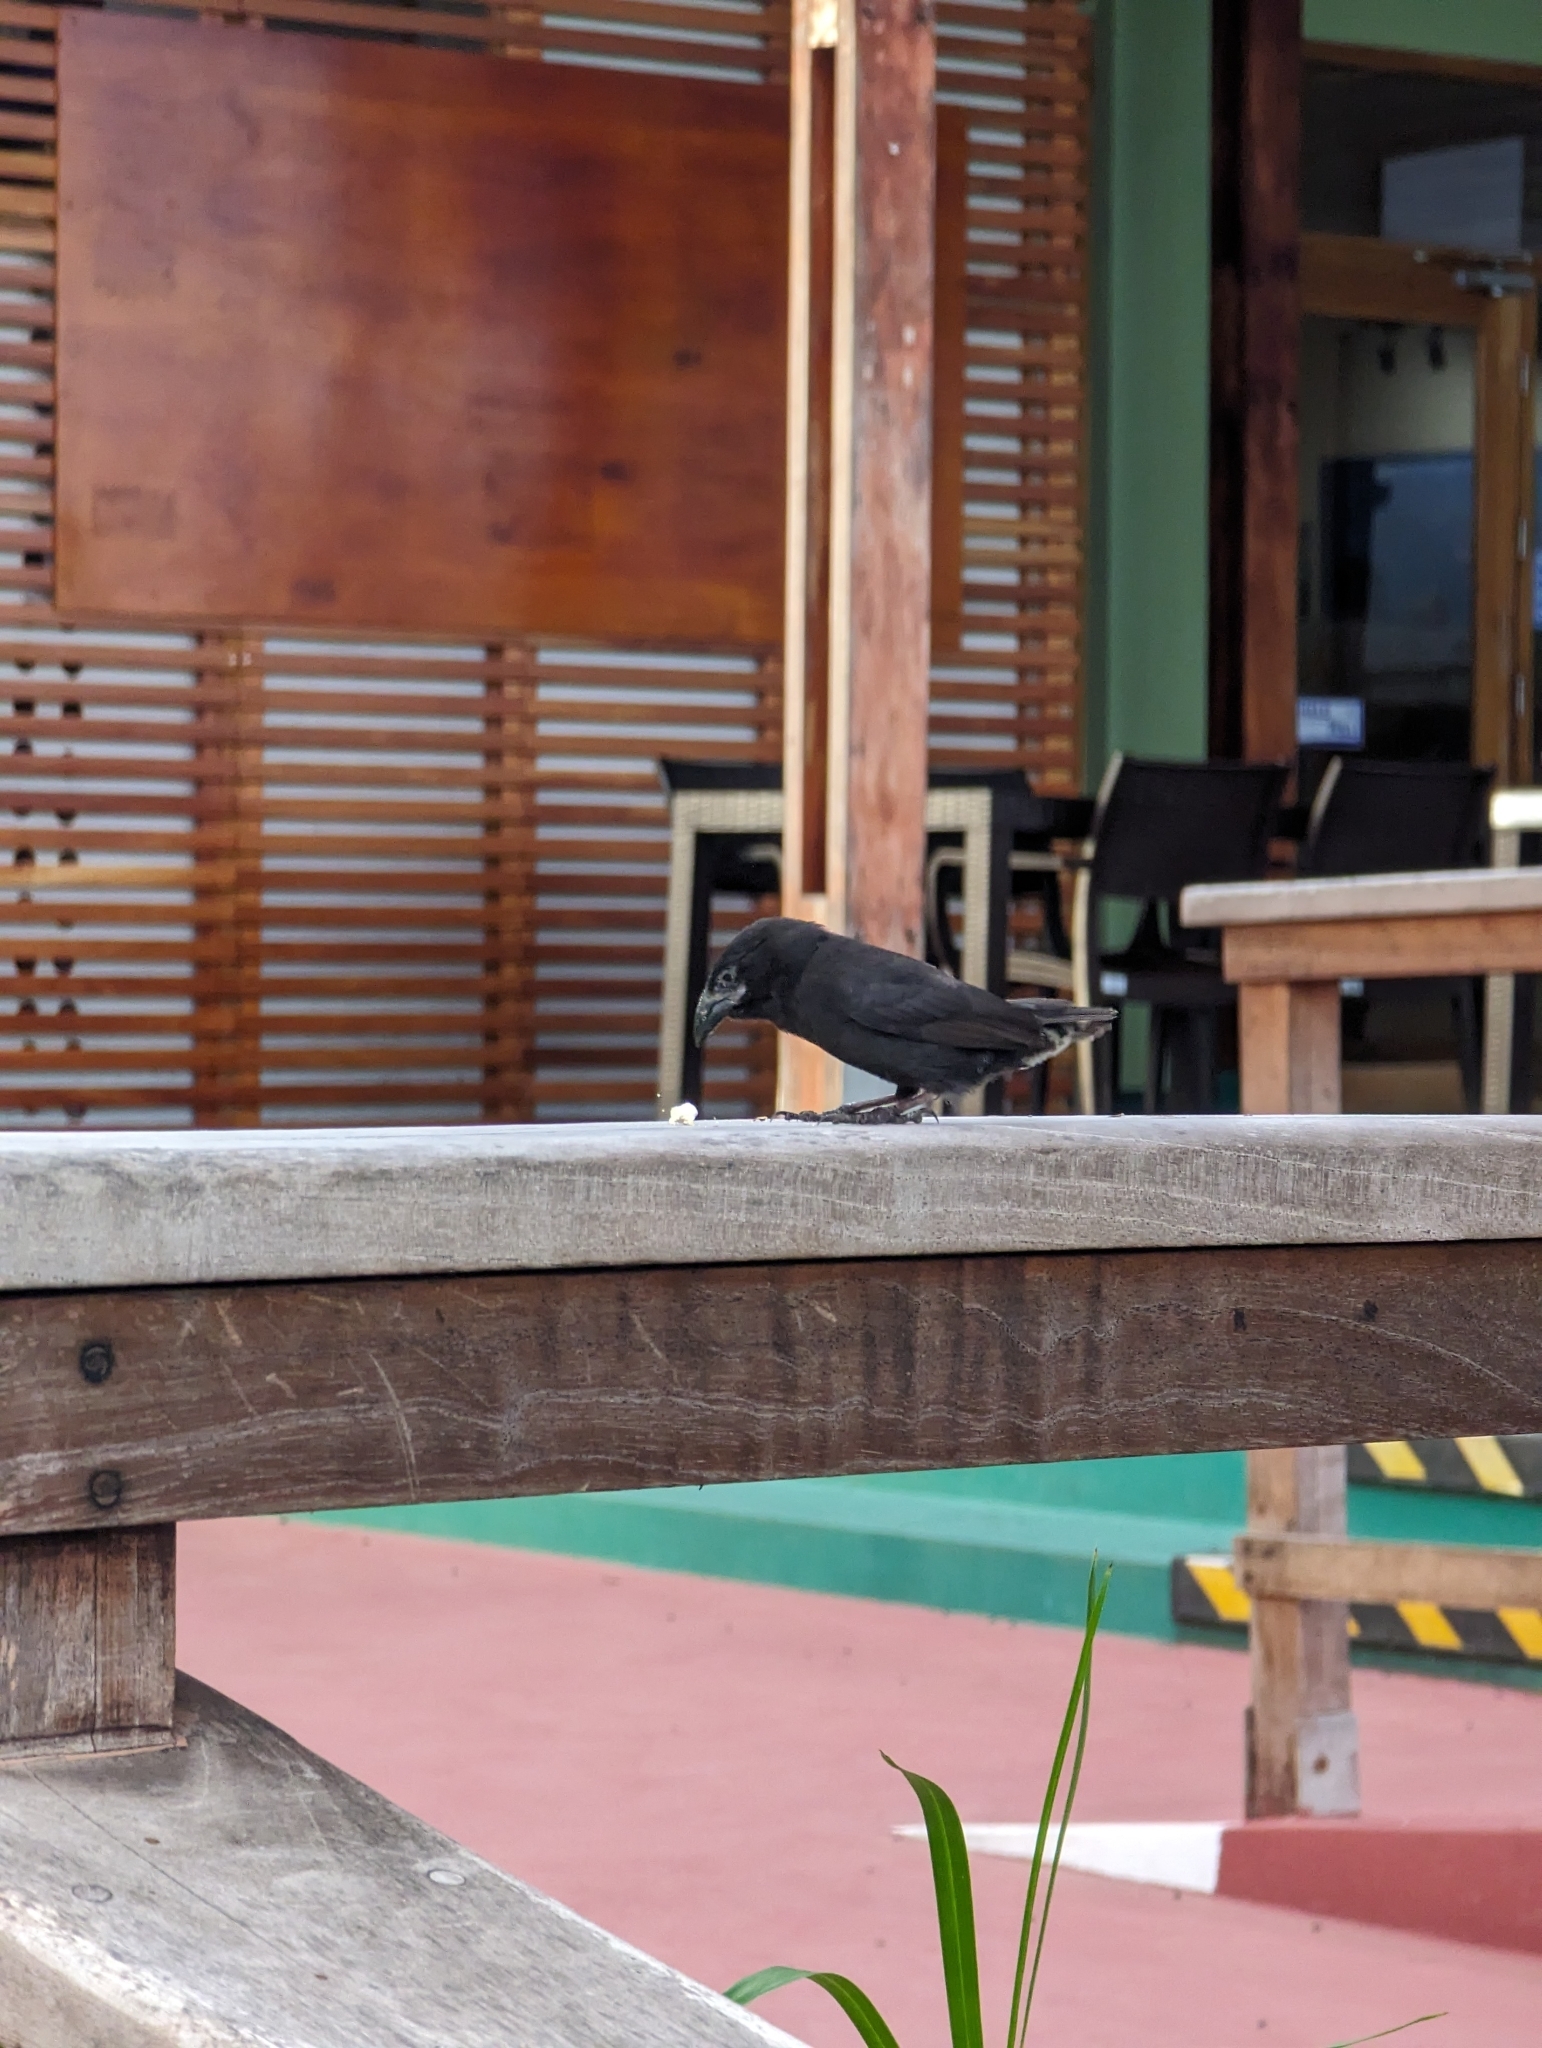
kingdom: Animalia
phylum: Chordata
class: Aves
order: Passeriformes
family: Thraupidae
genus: Geospiza
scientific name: Geospiza scandens
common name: Common cactus-finch
